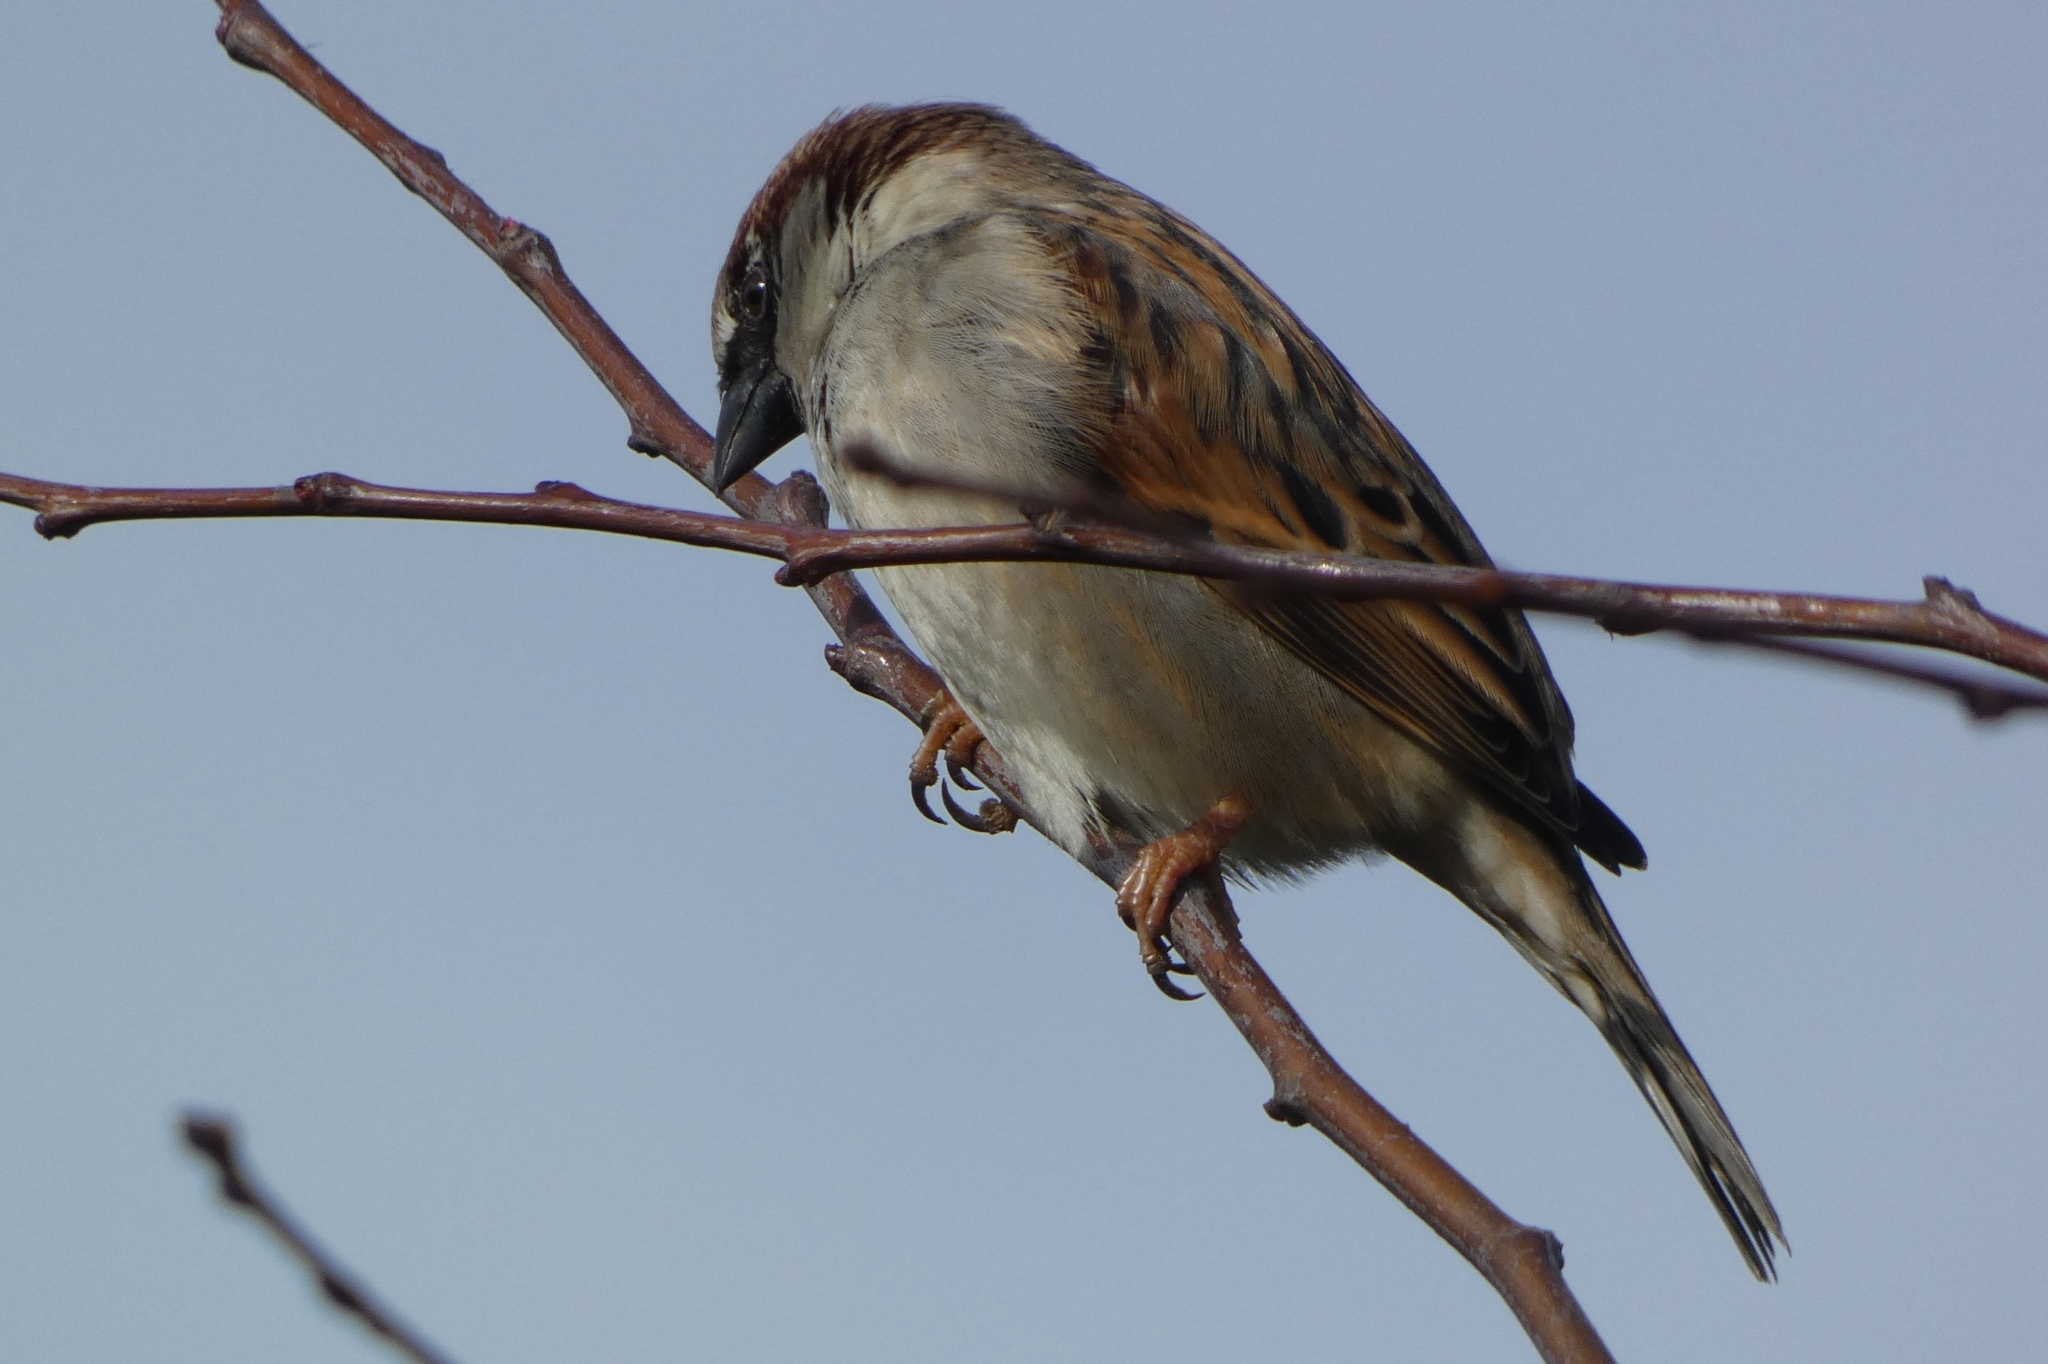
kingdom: Animalia
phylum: Chordata
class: Aves
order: Passeriformes
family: Passeridae
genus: Passer
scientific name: Passer domesticus
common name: House sparrow
